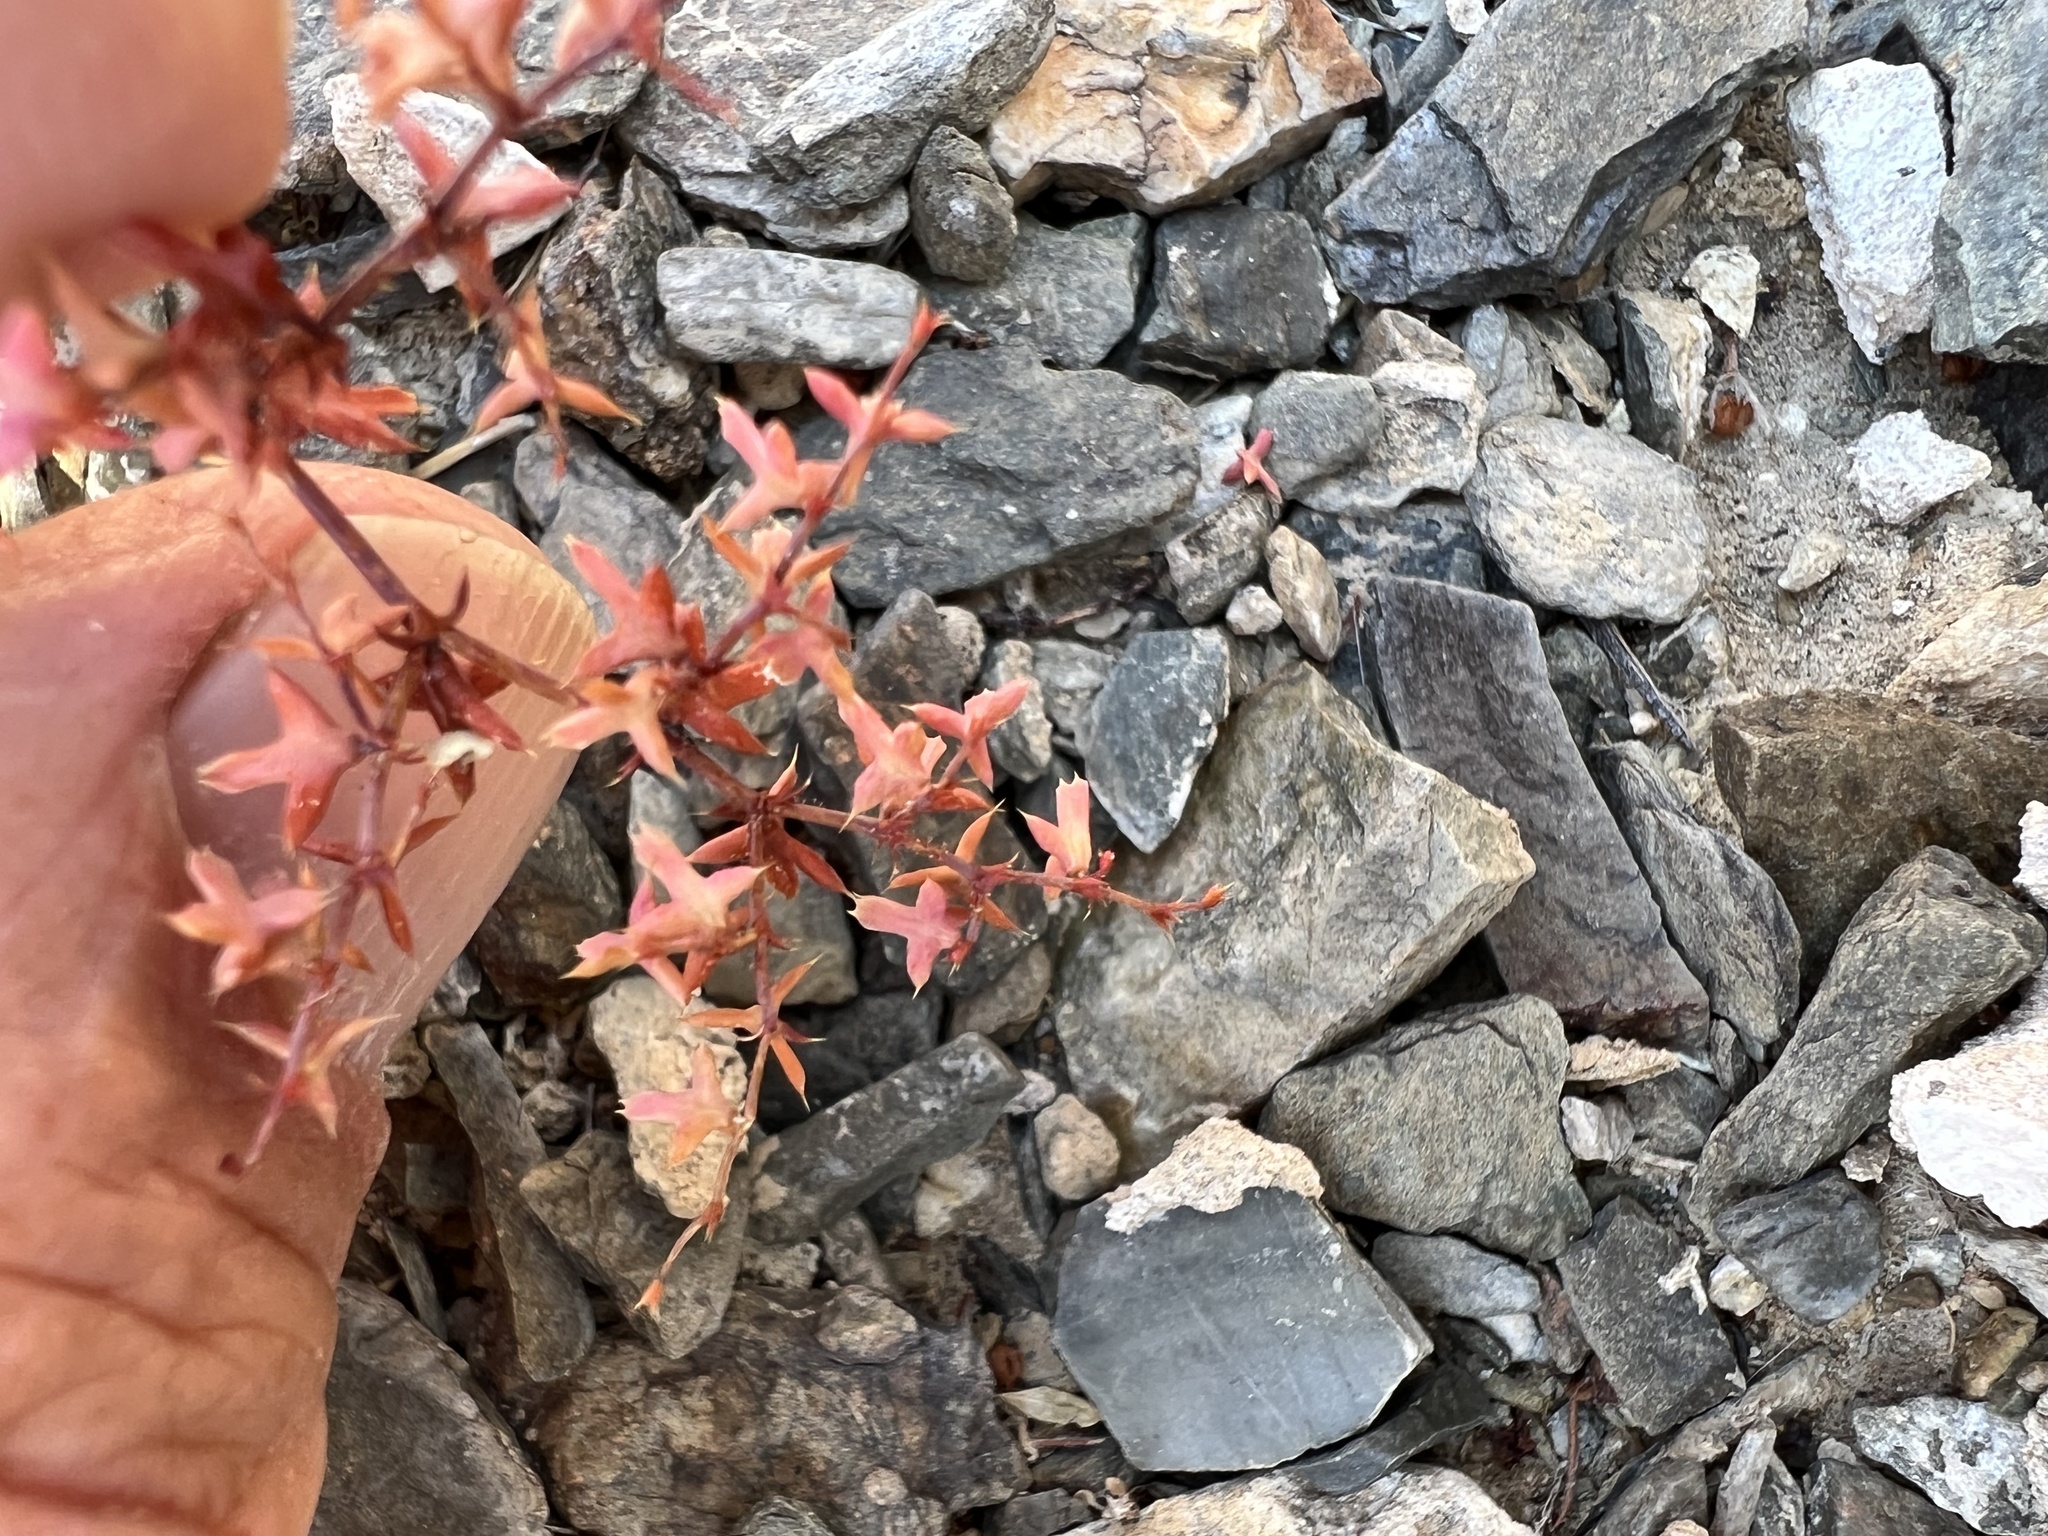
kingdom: Plantae
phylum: Tracheophyta
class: Magnoliopsida
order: Caryophyllales
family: Polygonaceae
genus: Centrostegia
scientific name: Centrostegia thurberi
